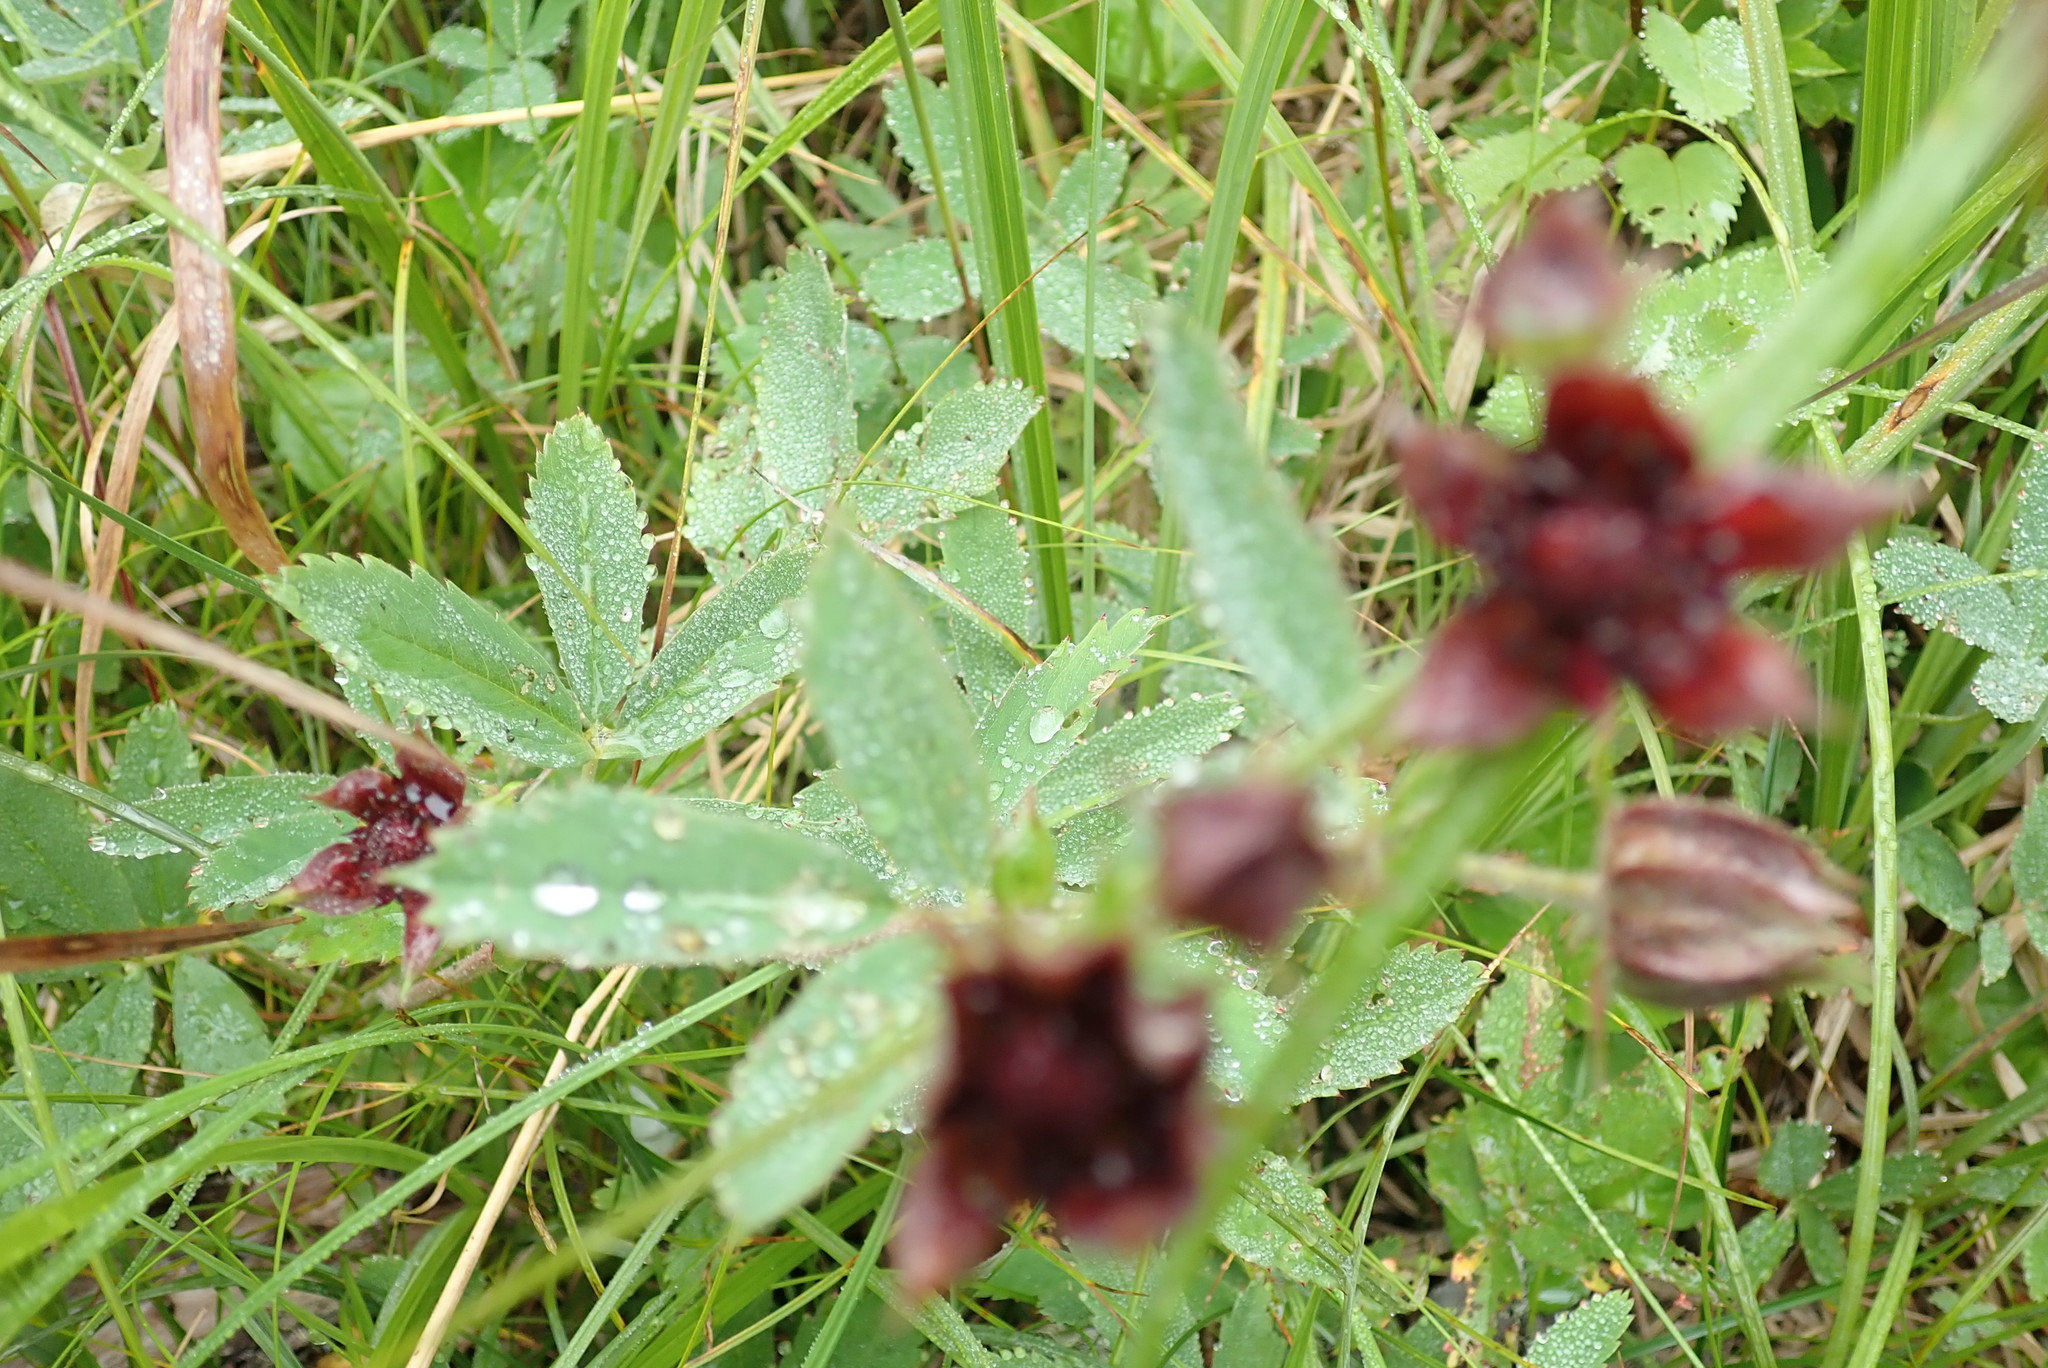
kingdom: Plantae
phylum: Tracheophyta
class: Magnoliopsida
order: Rosales
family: Rosaceae
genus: Comarum
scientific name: Comarum palustre
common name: Marsh cinquefoil
